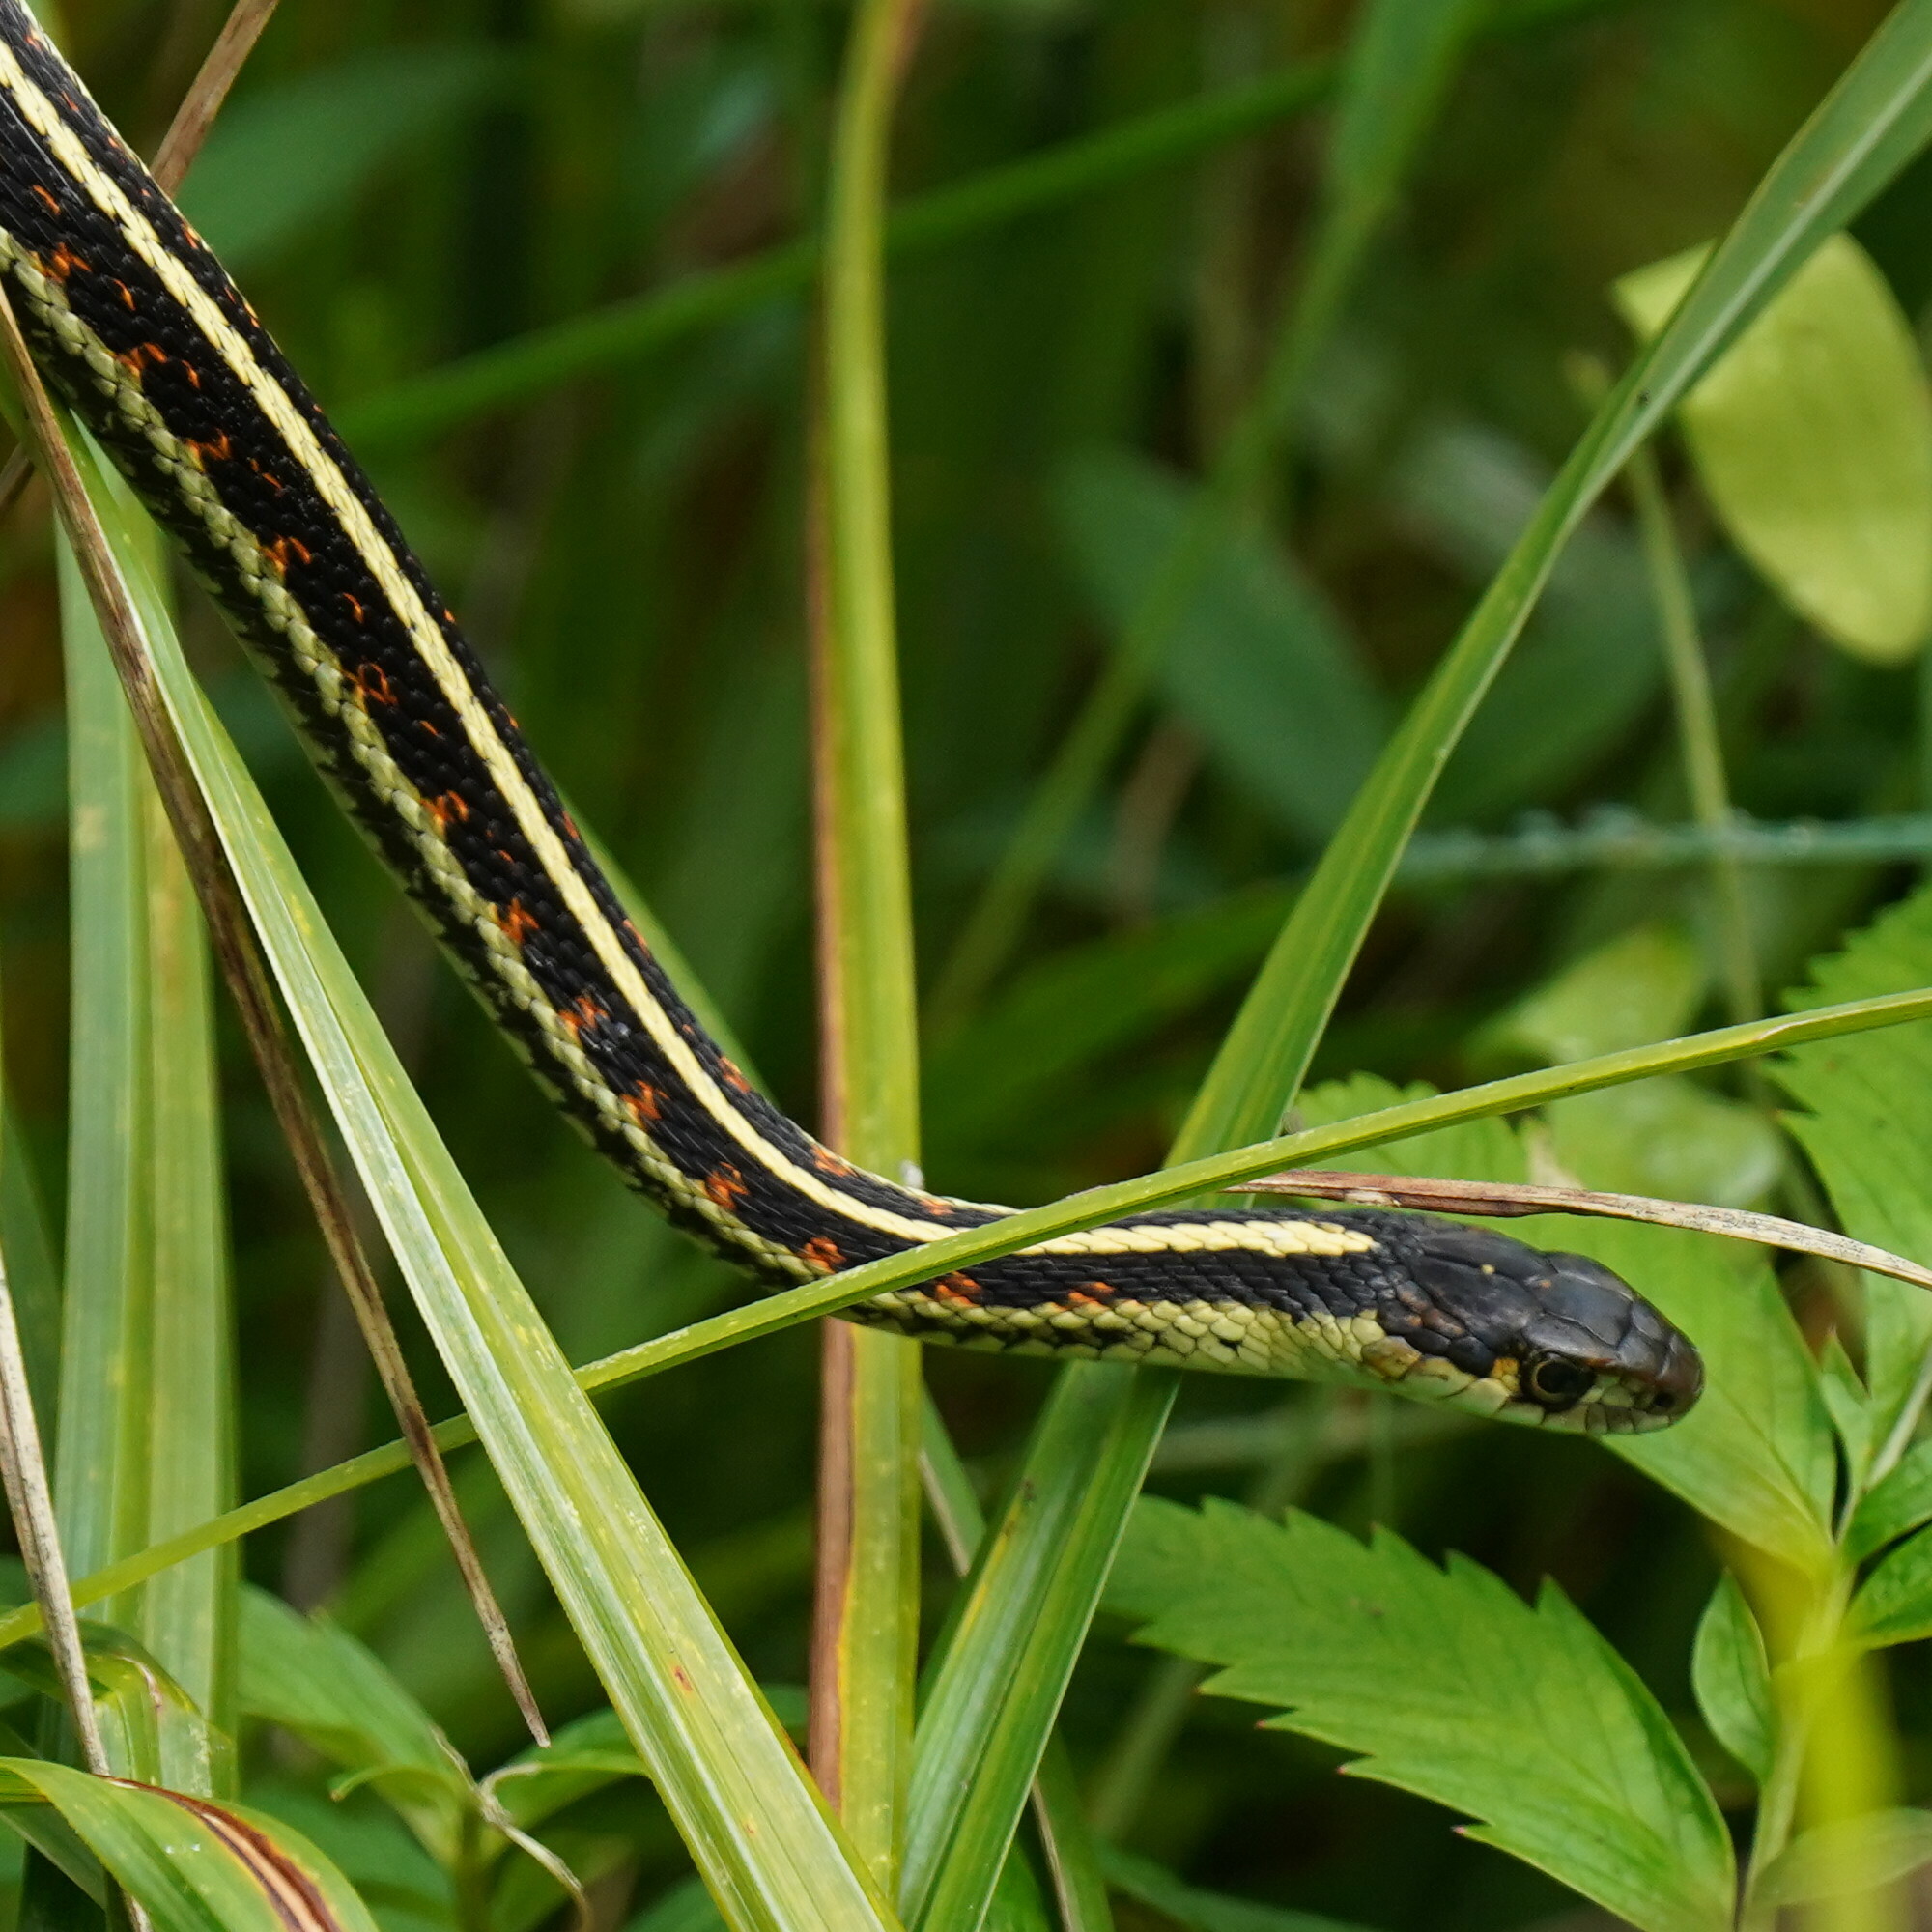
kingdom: Animalia
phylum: Chordata
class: Squamata
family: Colubridae
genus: Thamnophis
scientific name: Thamnophis sirtalis
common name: Common garter snake
